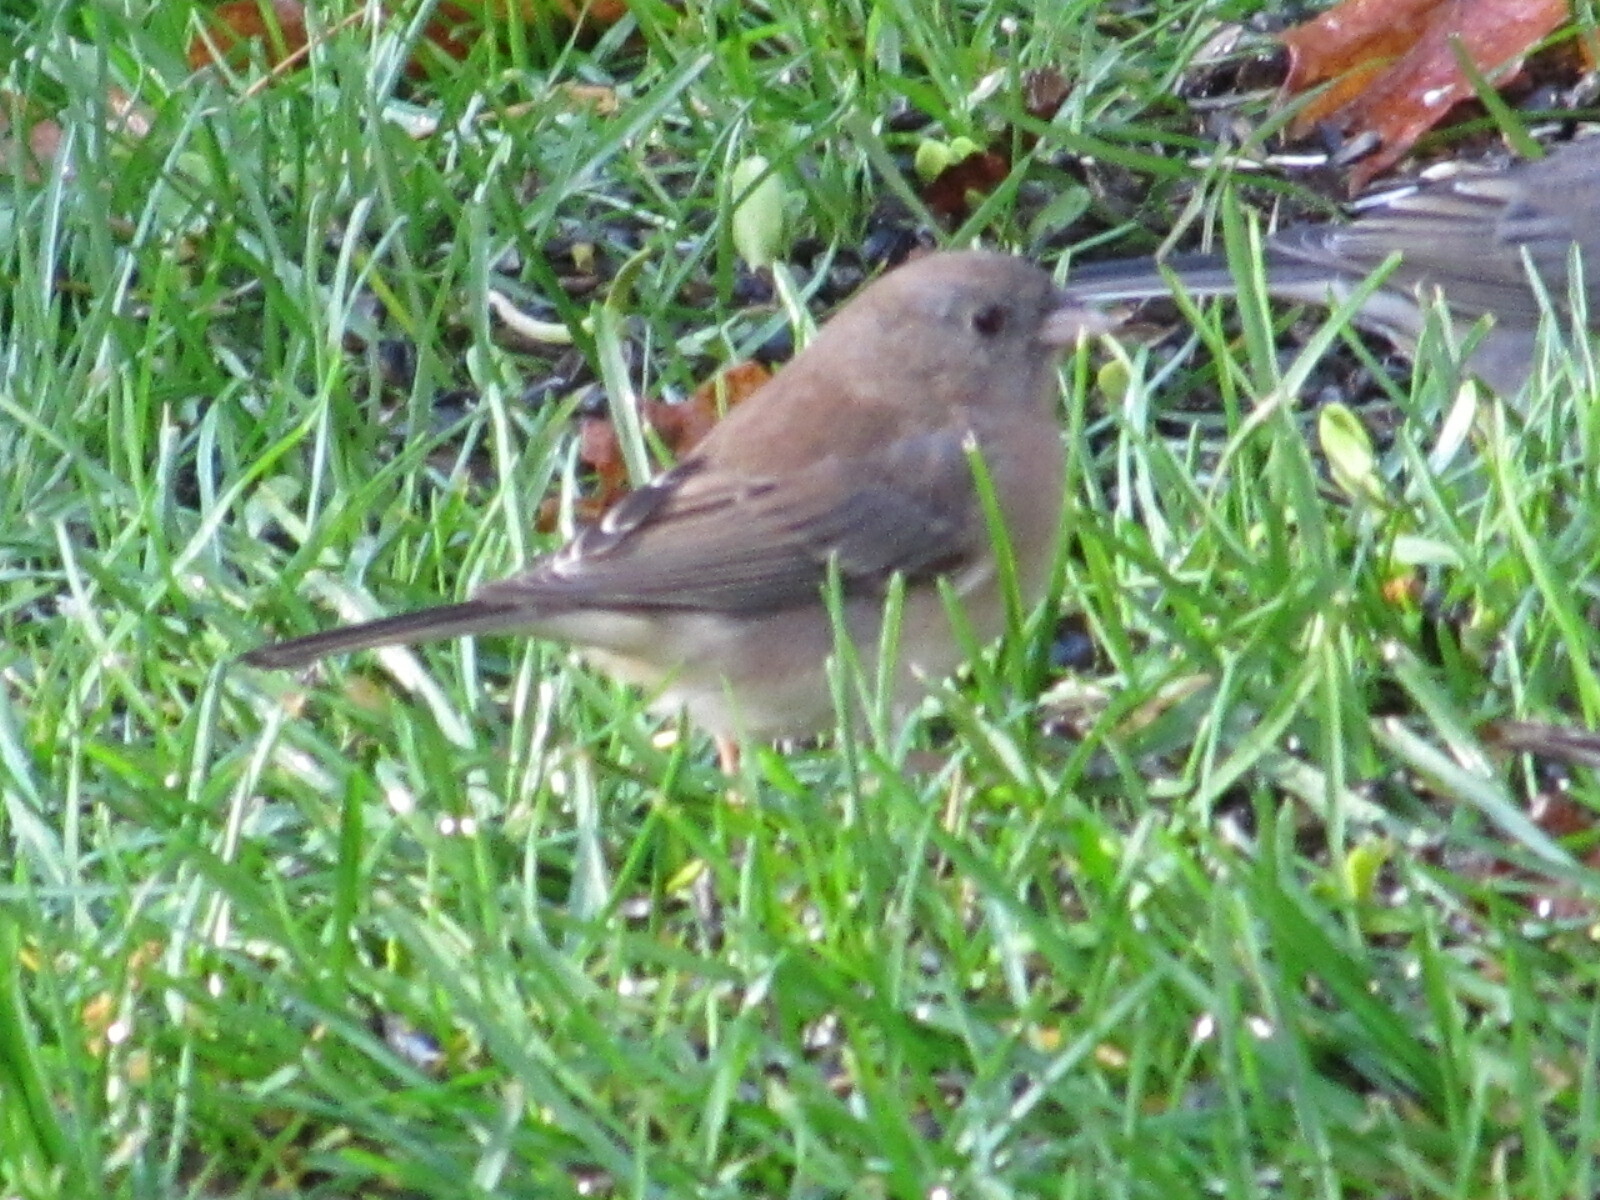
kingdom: Animalia
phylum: Chordata
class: Aves
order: Passeriformes
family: Passerellidae
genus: Junco
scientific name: Junco hyemalis
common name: Dark-eyed junco
